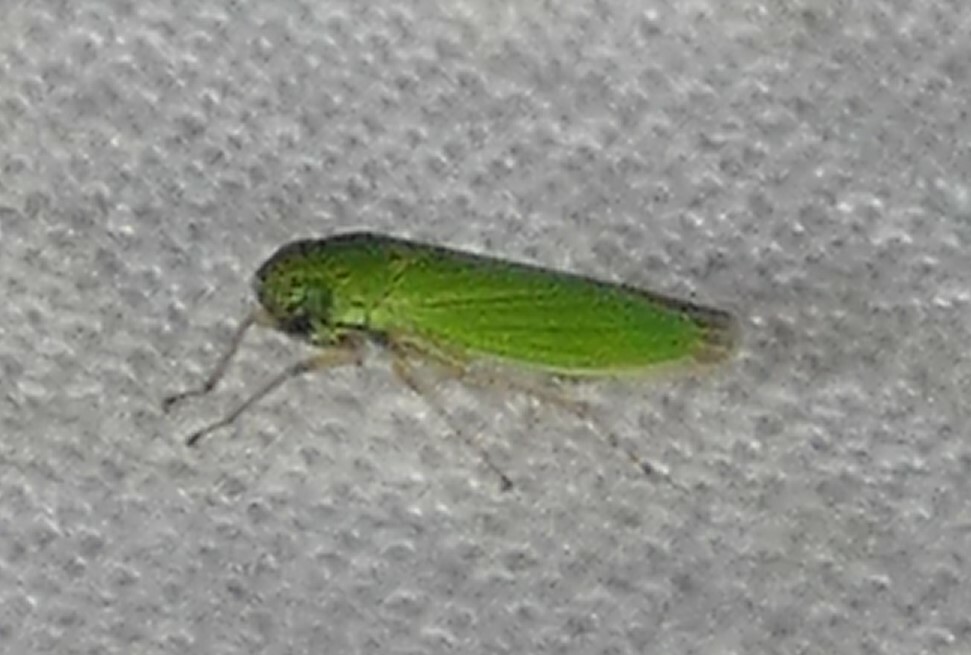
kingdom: Animalia
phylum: Arthropoda
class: Insecta
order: Hemiptera
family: Cicadellidae
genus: Hortensia
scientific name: Hortensia similis
